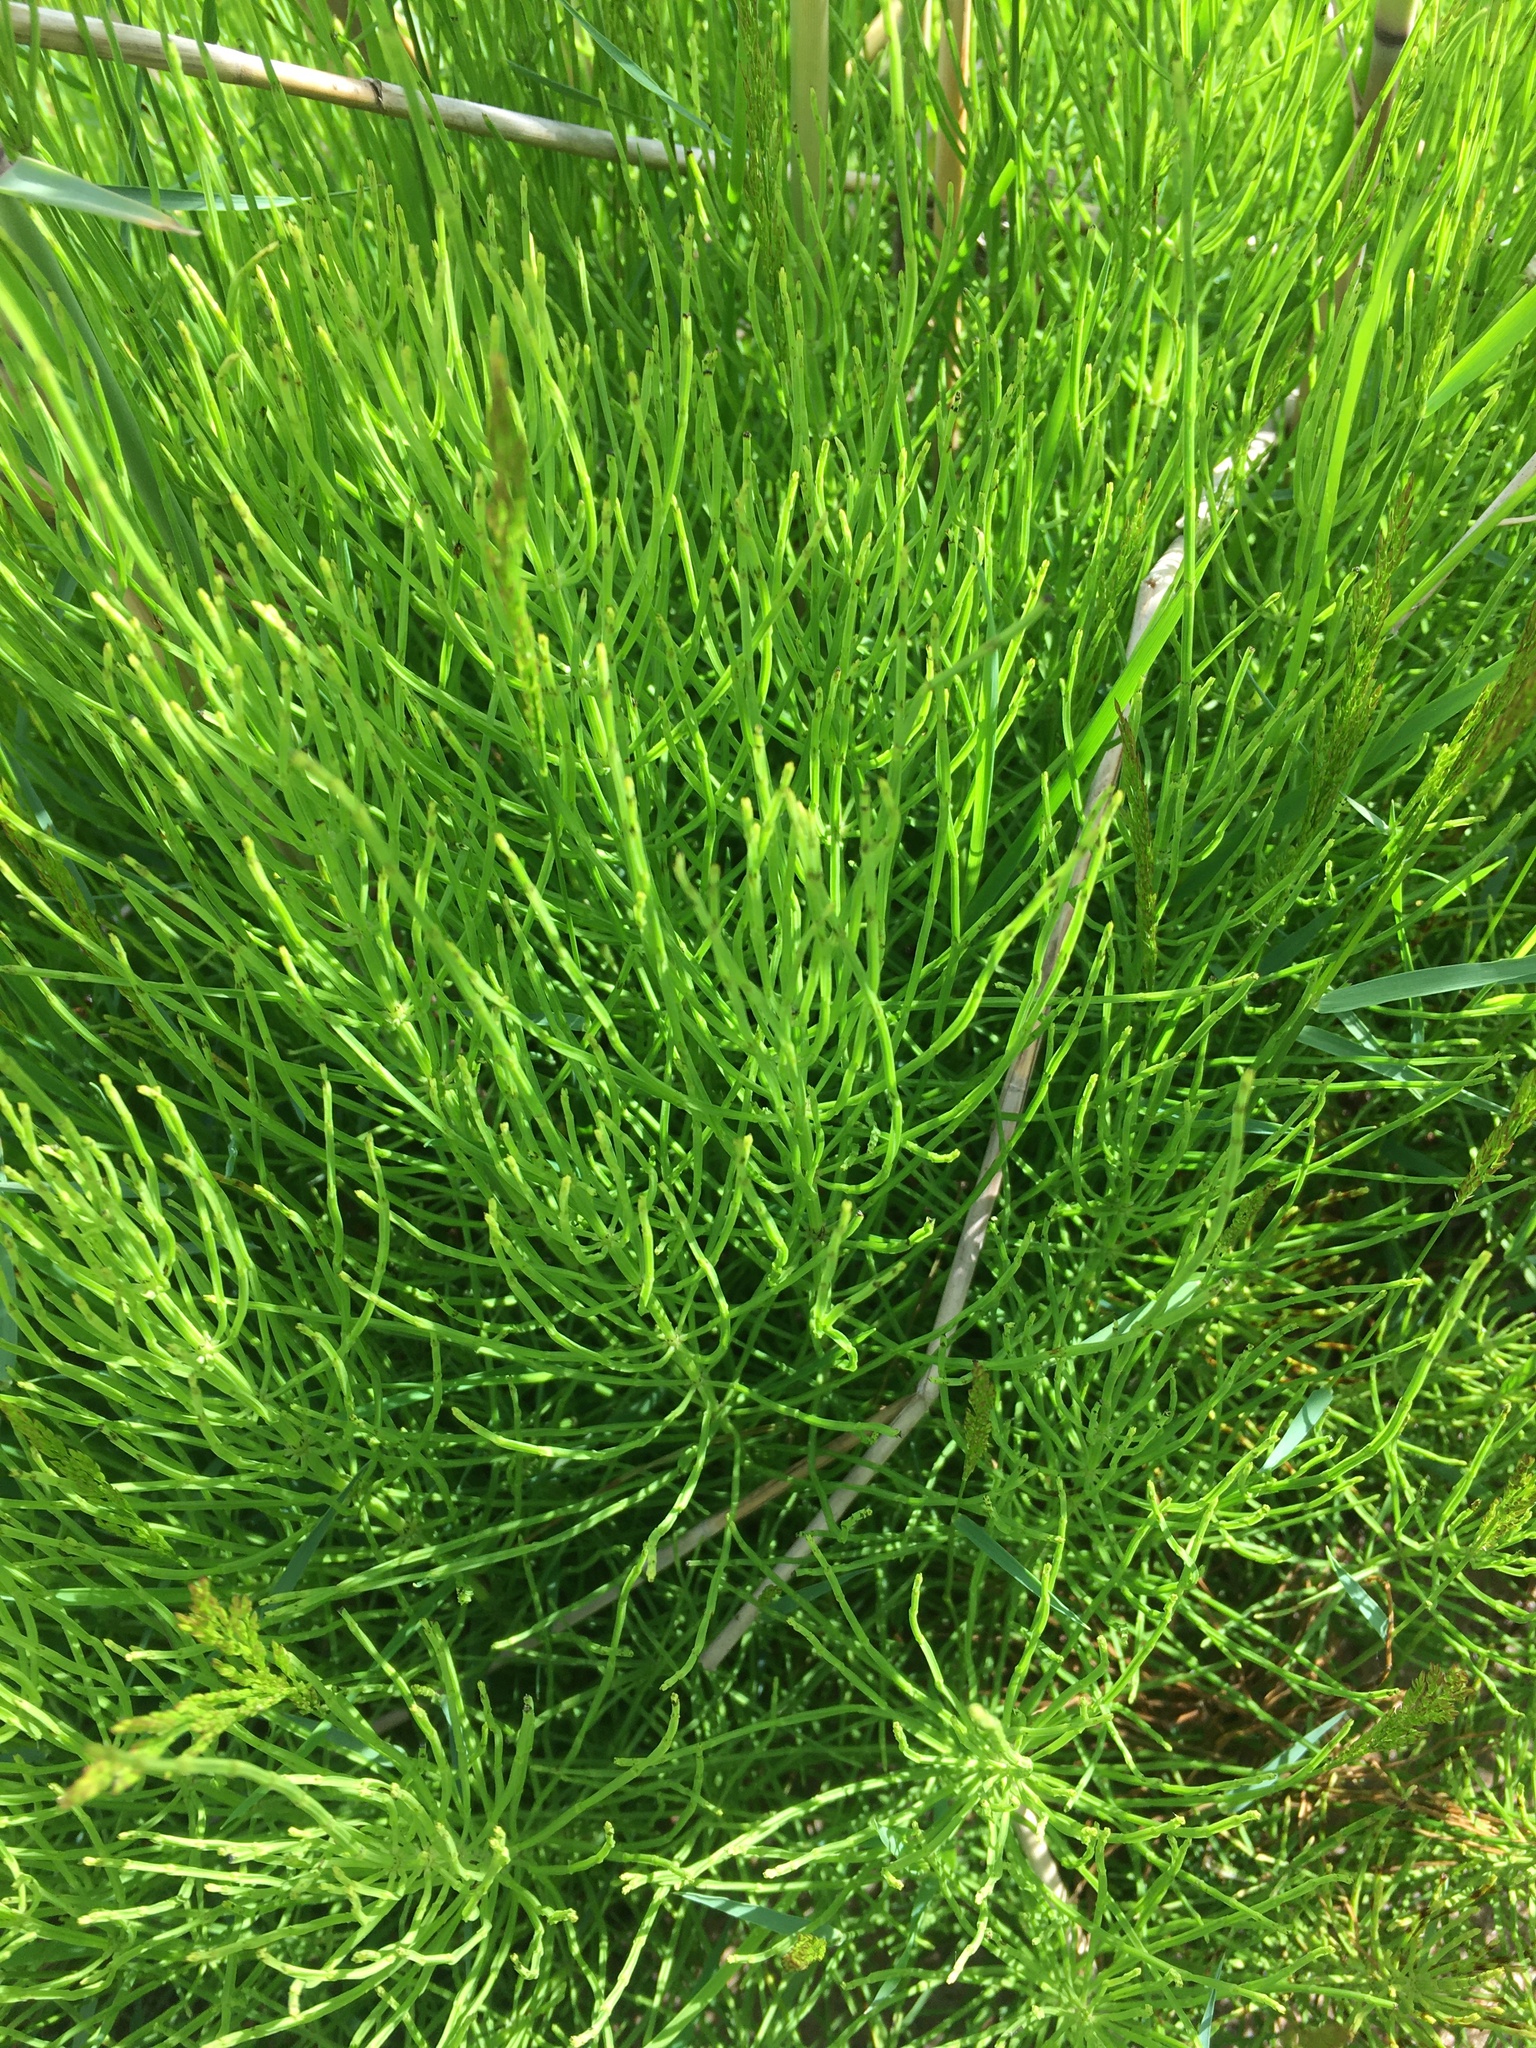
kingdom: Plantae
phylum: Tracheophyta
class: Polypodiopsida
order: Equisetales
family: Equisetaceae
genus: Equisetum
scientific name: Equisetum arvense
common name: Field horsetail
